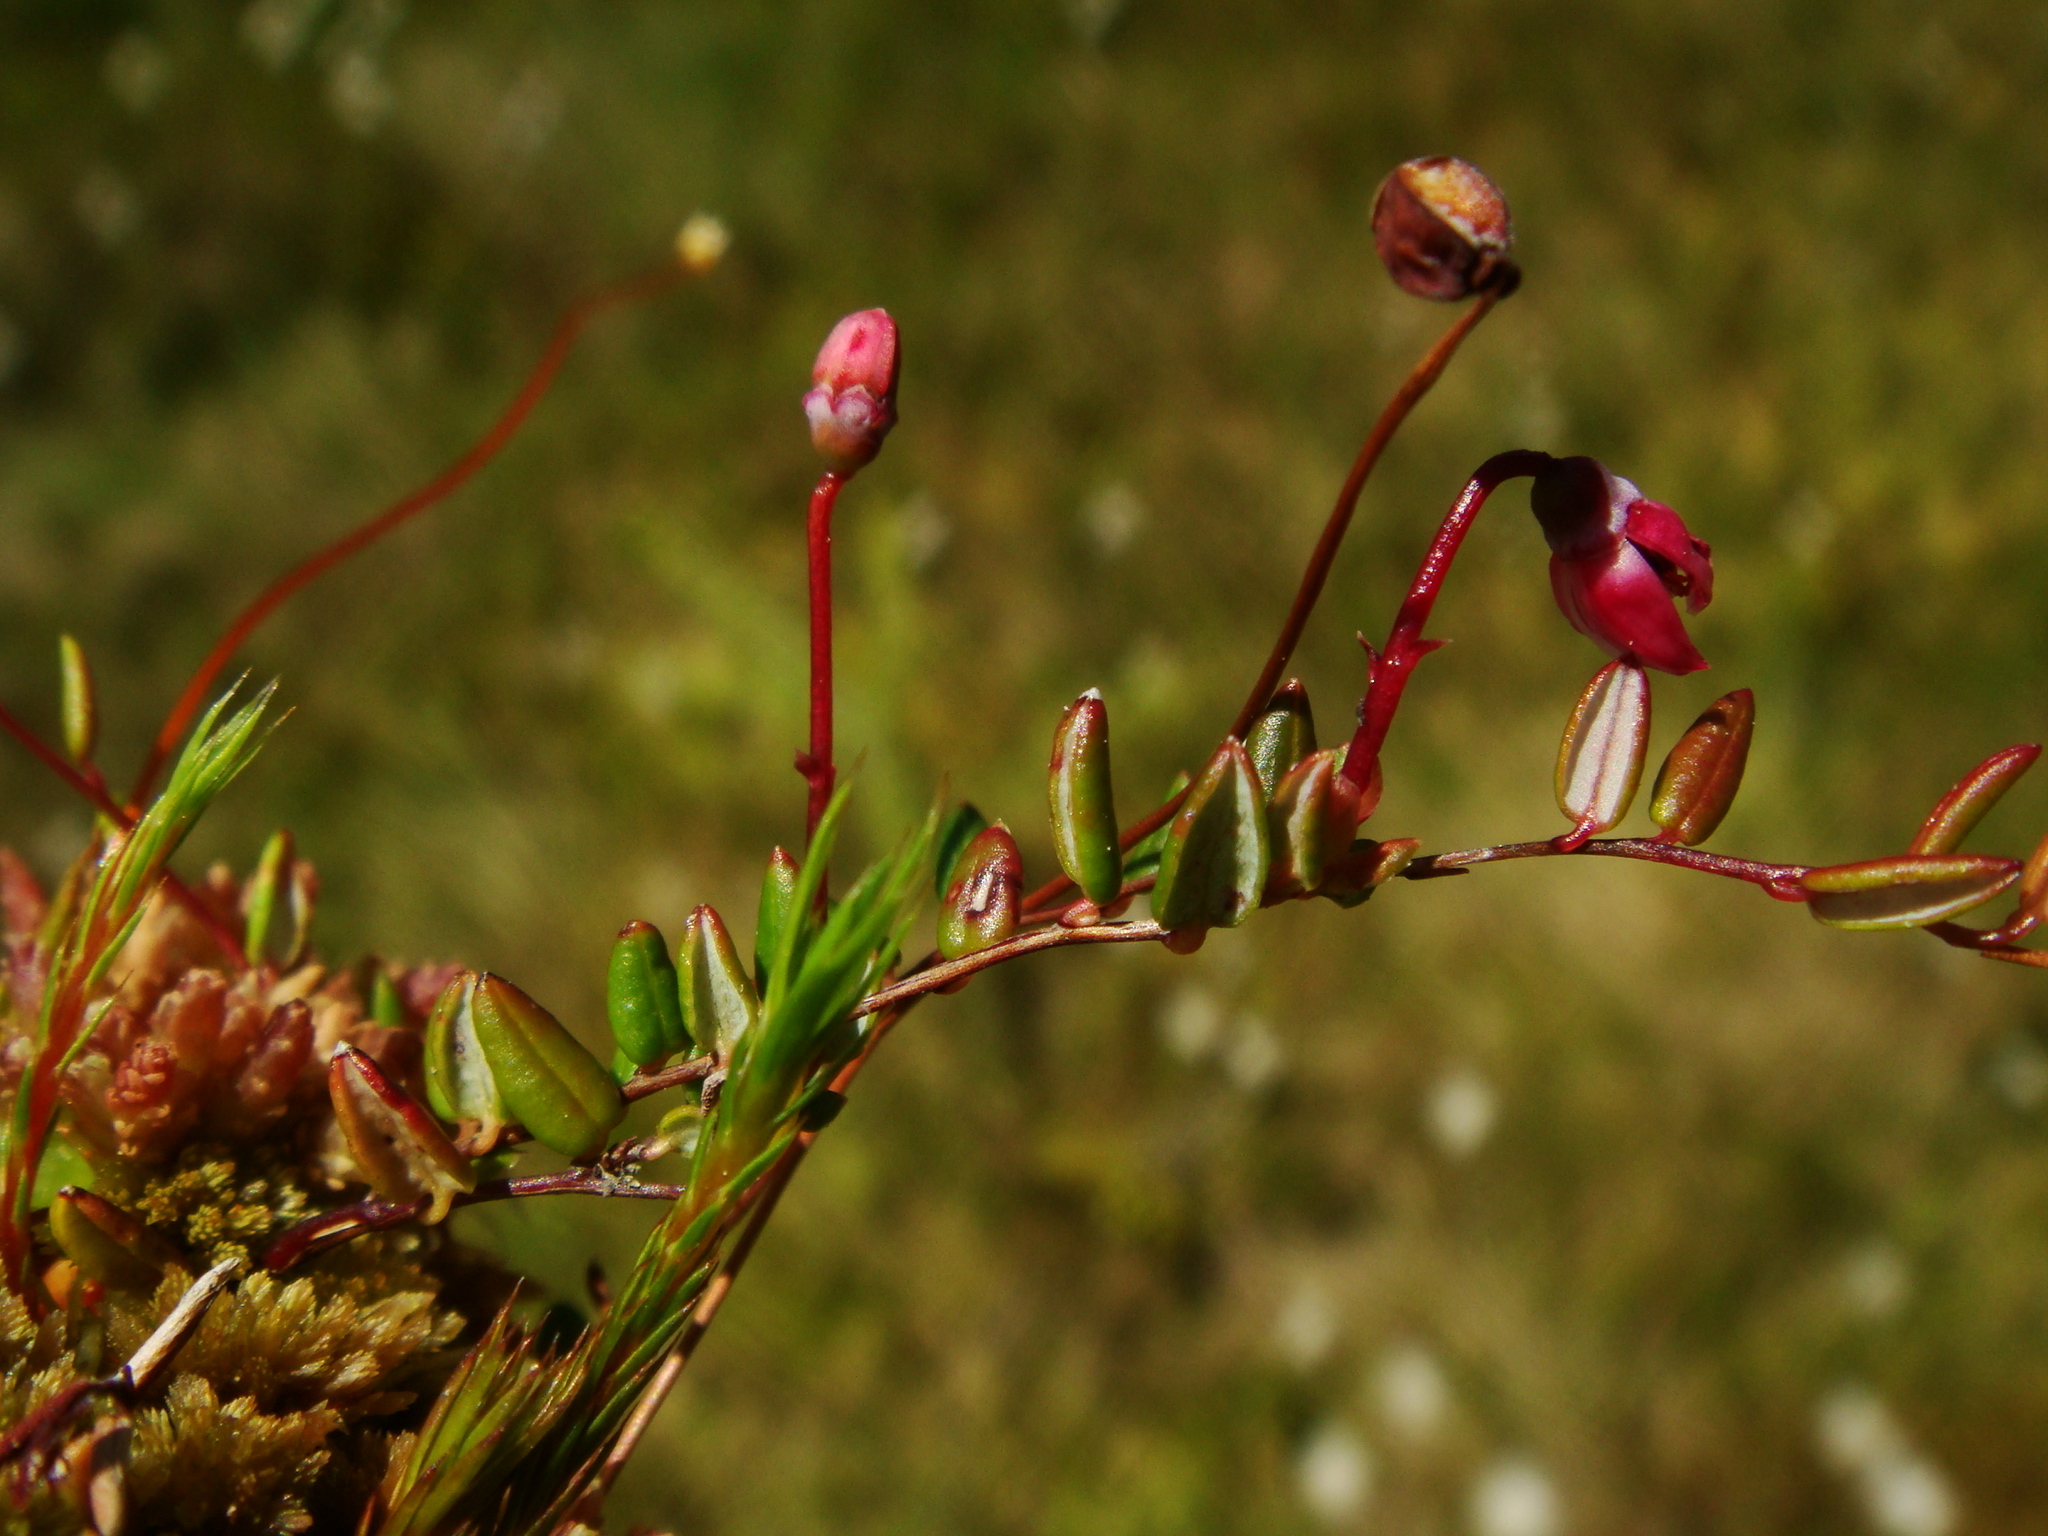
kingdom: Plantae
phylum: Tracheophyta
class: Magnoliopsida
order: Ericales
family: Ericaceae
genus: Vaccinium
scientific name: Vaccinium microcarpum
